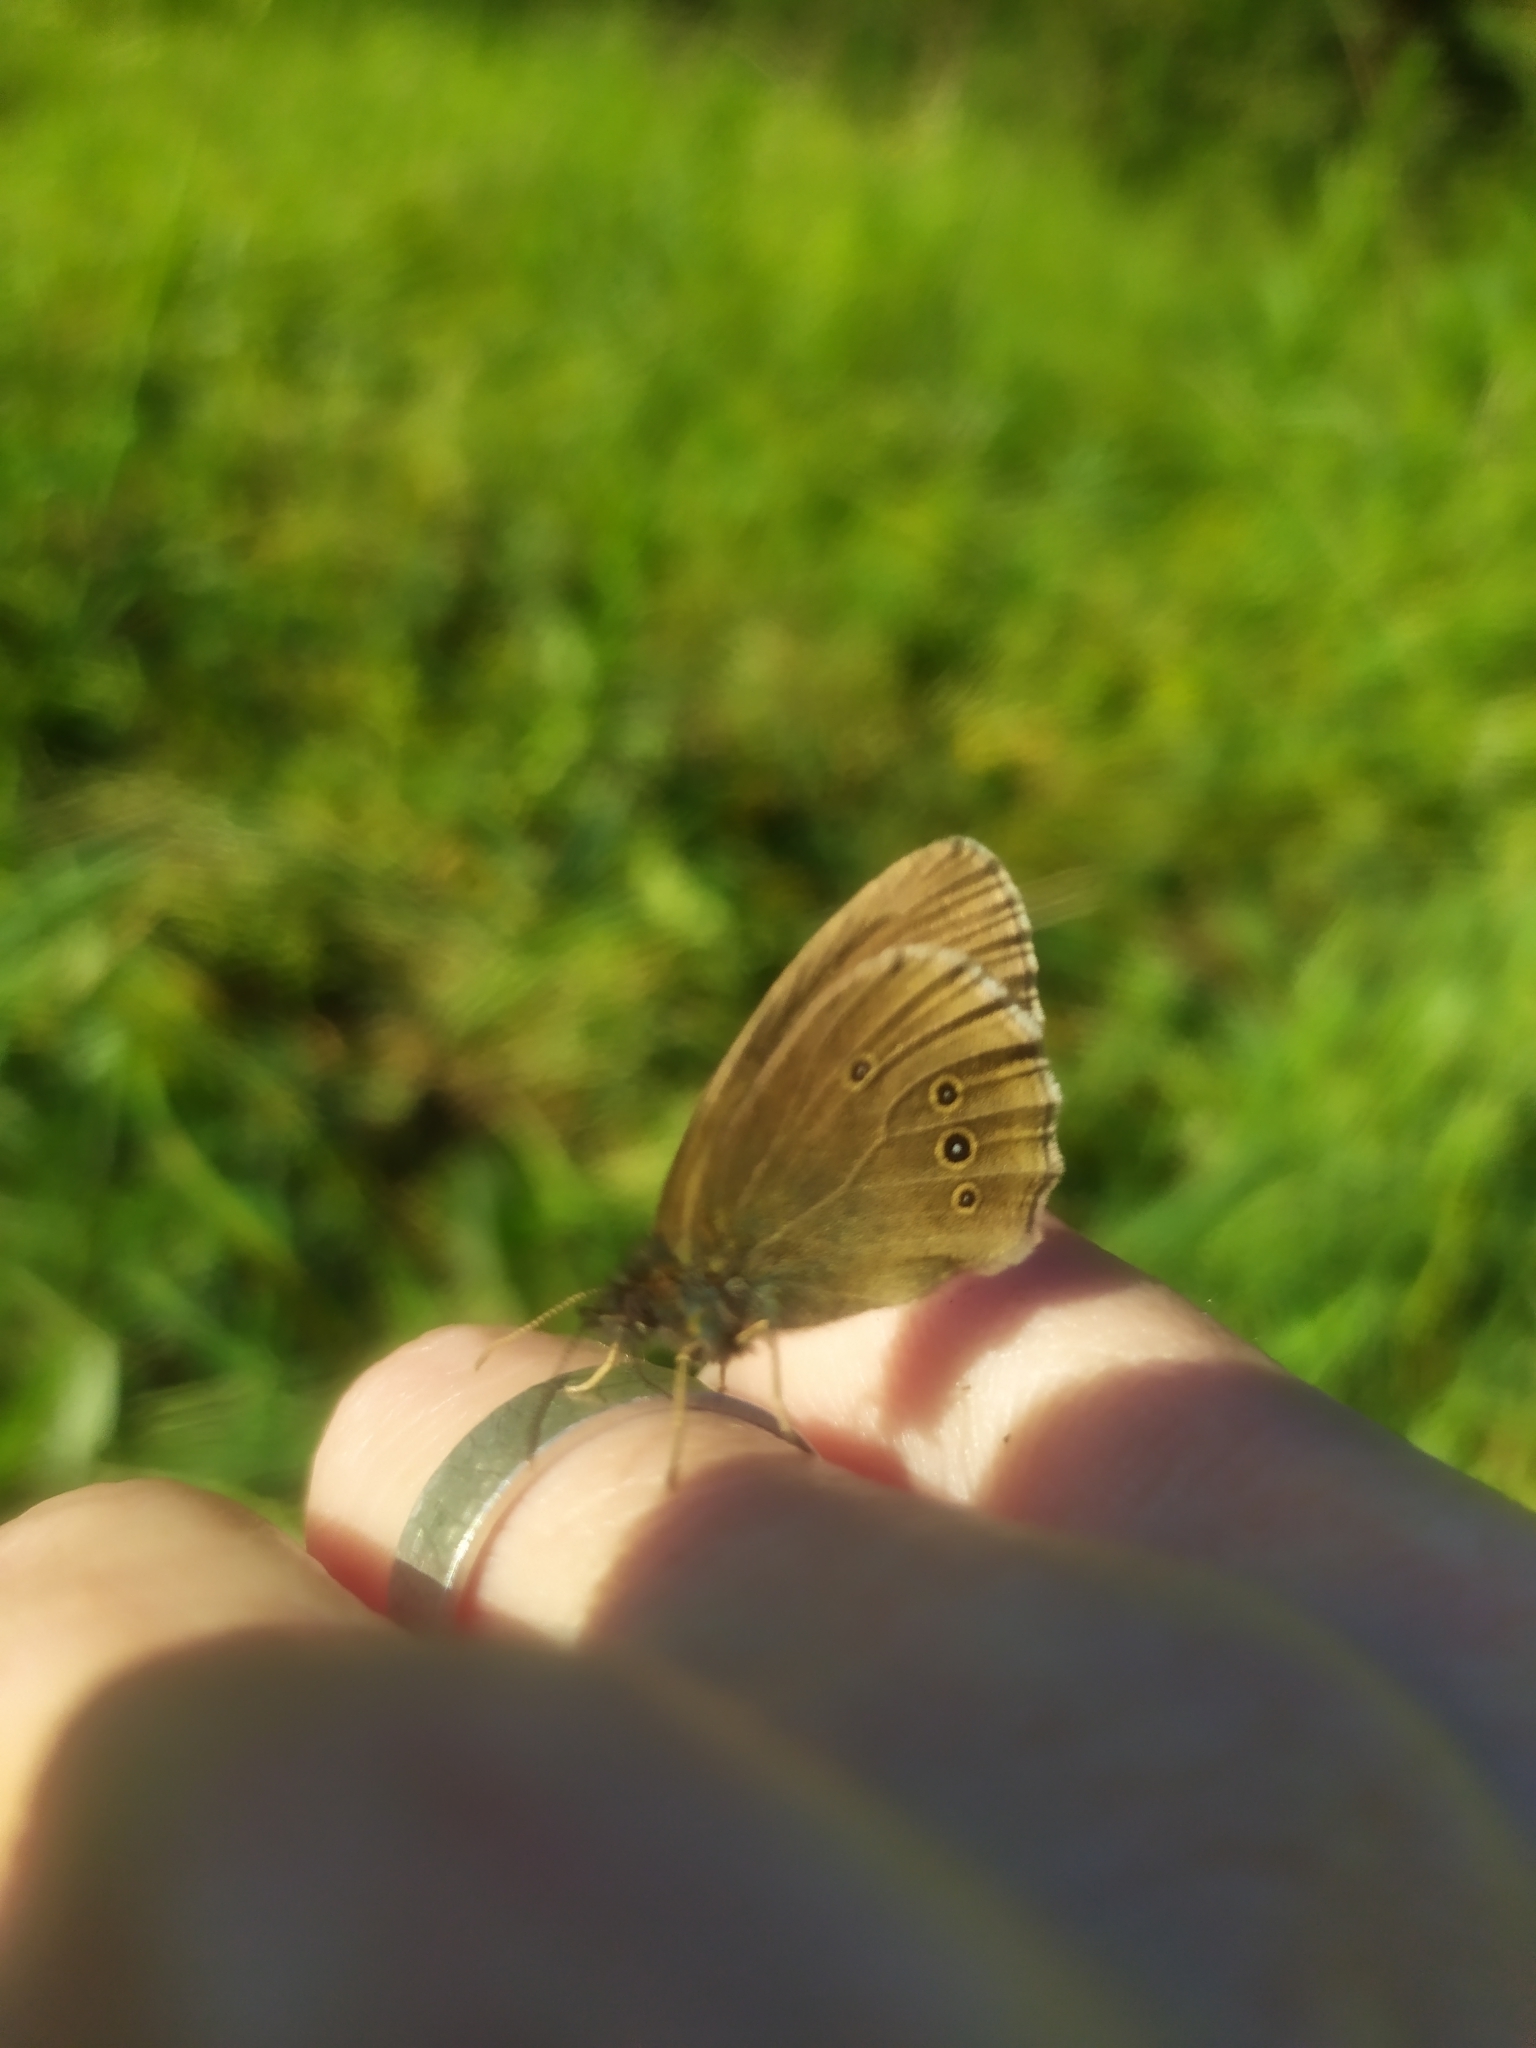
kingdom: Animalia
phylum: Arthropoda
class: Insecta
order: Lepidoptera
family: Nymphalidae
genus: Aphantopus
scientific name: Aphantopus hyperantus
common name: Ringlet
